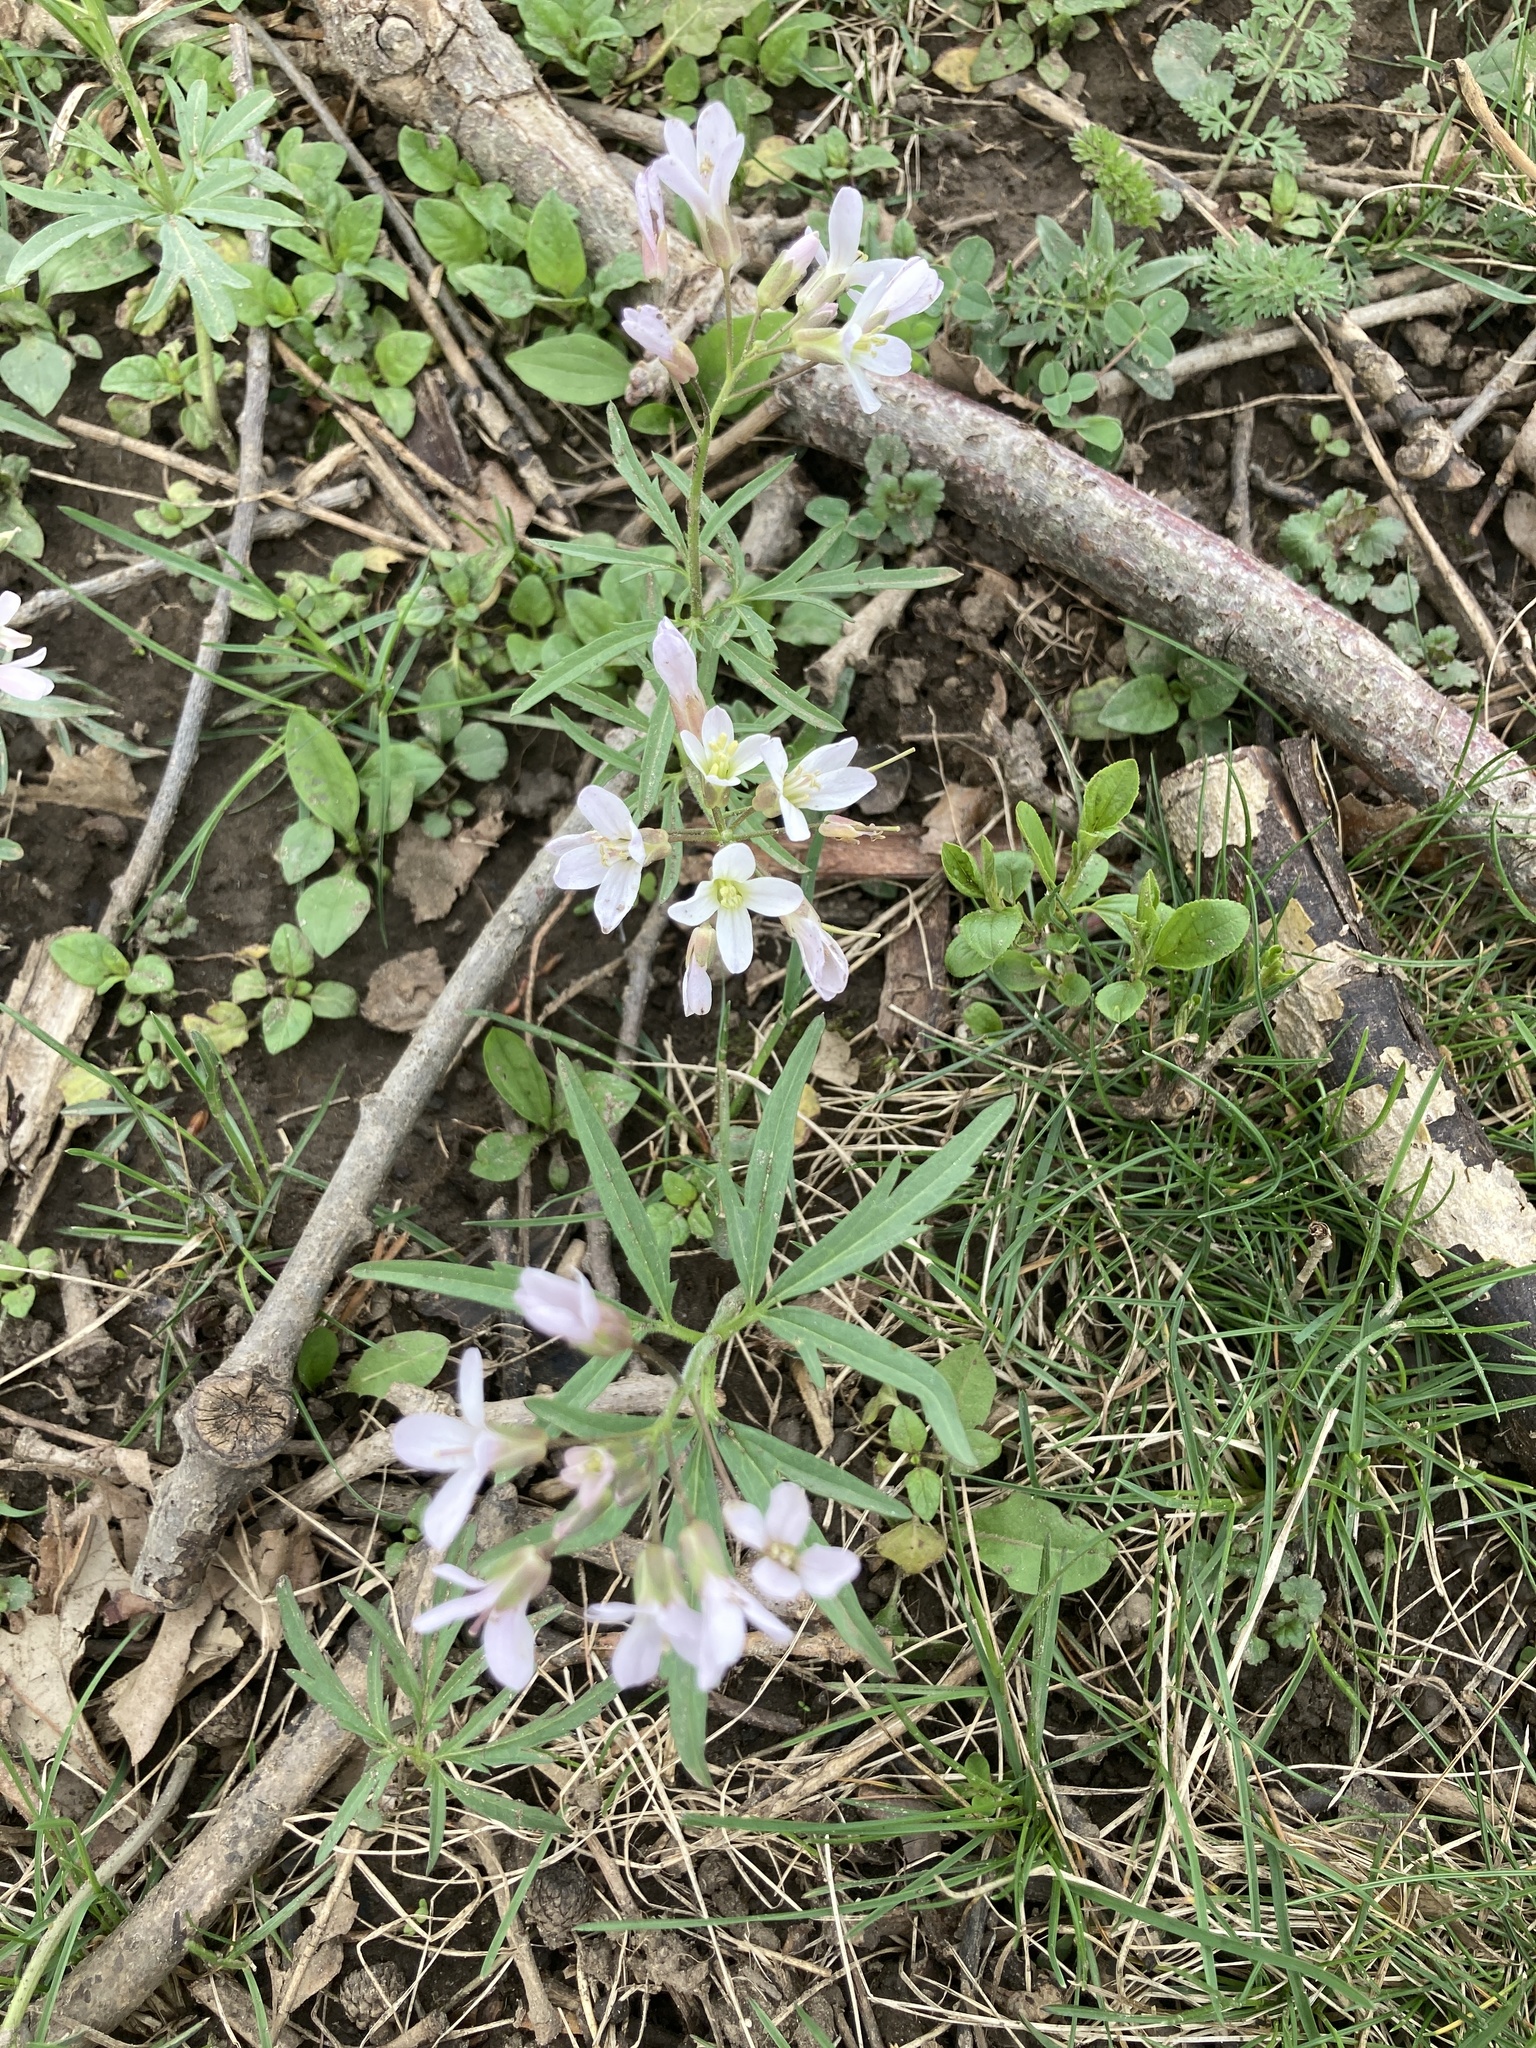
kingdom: Plantae
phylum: Tracheophyta
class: Magnoliopsida
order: Brassicales
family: Brassicaceae
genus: Cardamine
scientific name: Cardamine concatenata
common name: Cut-leaf toothcup
